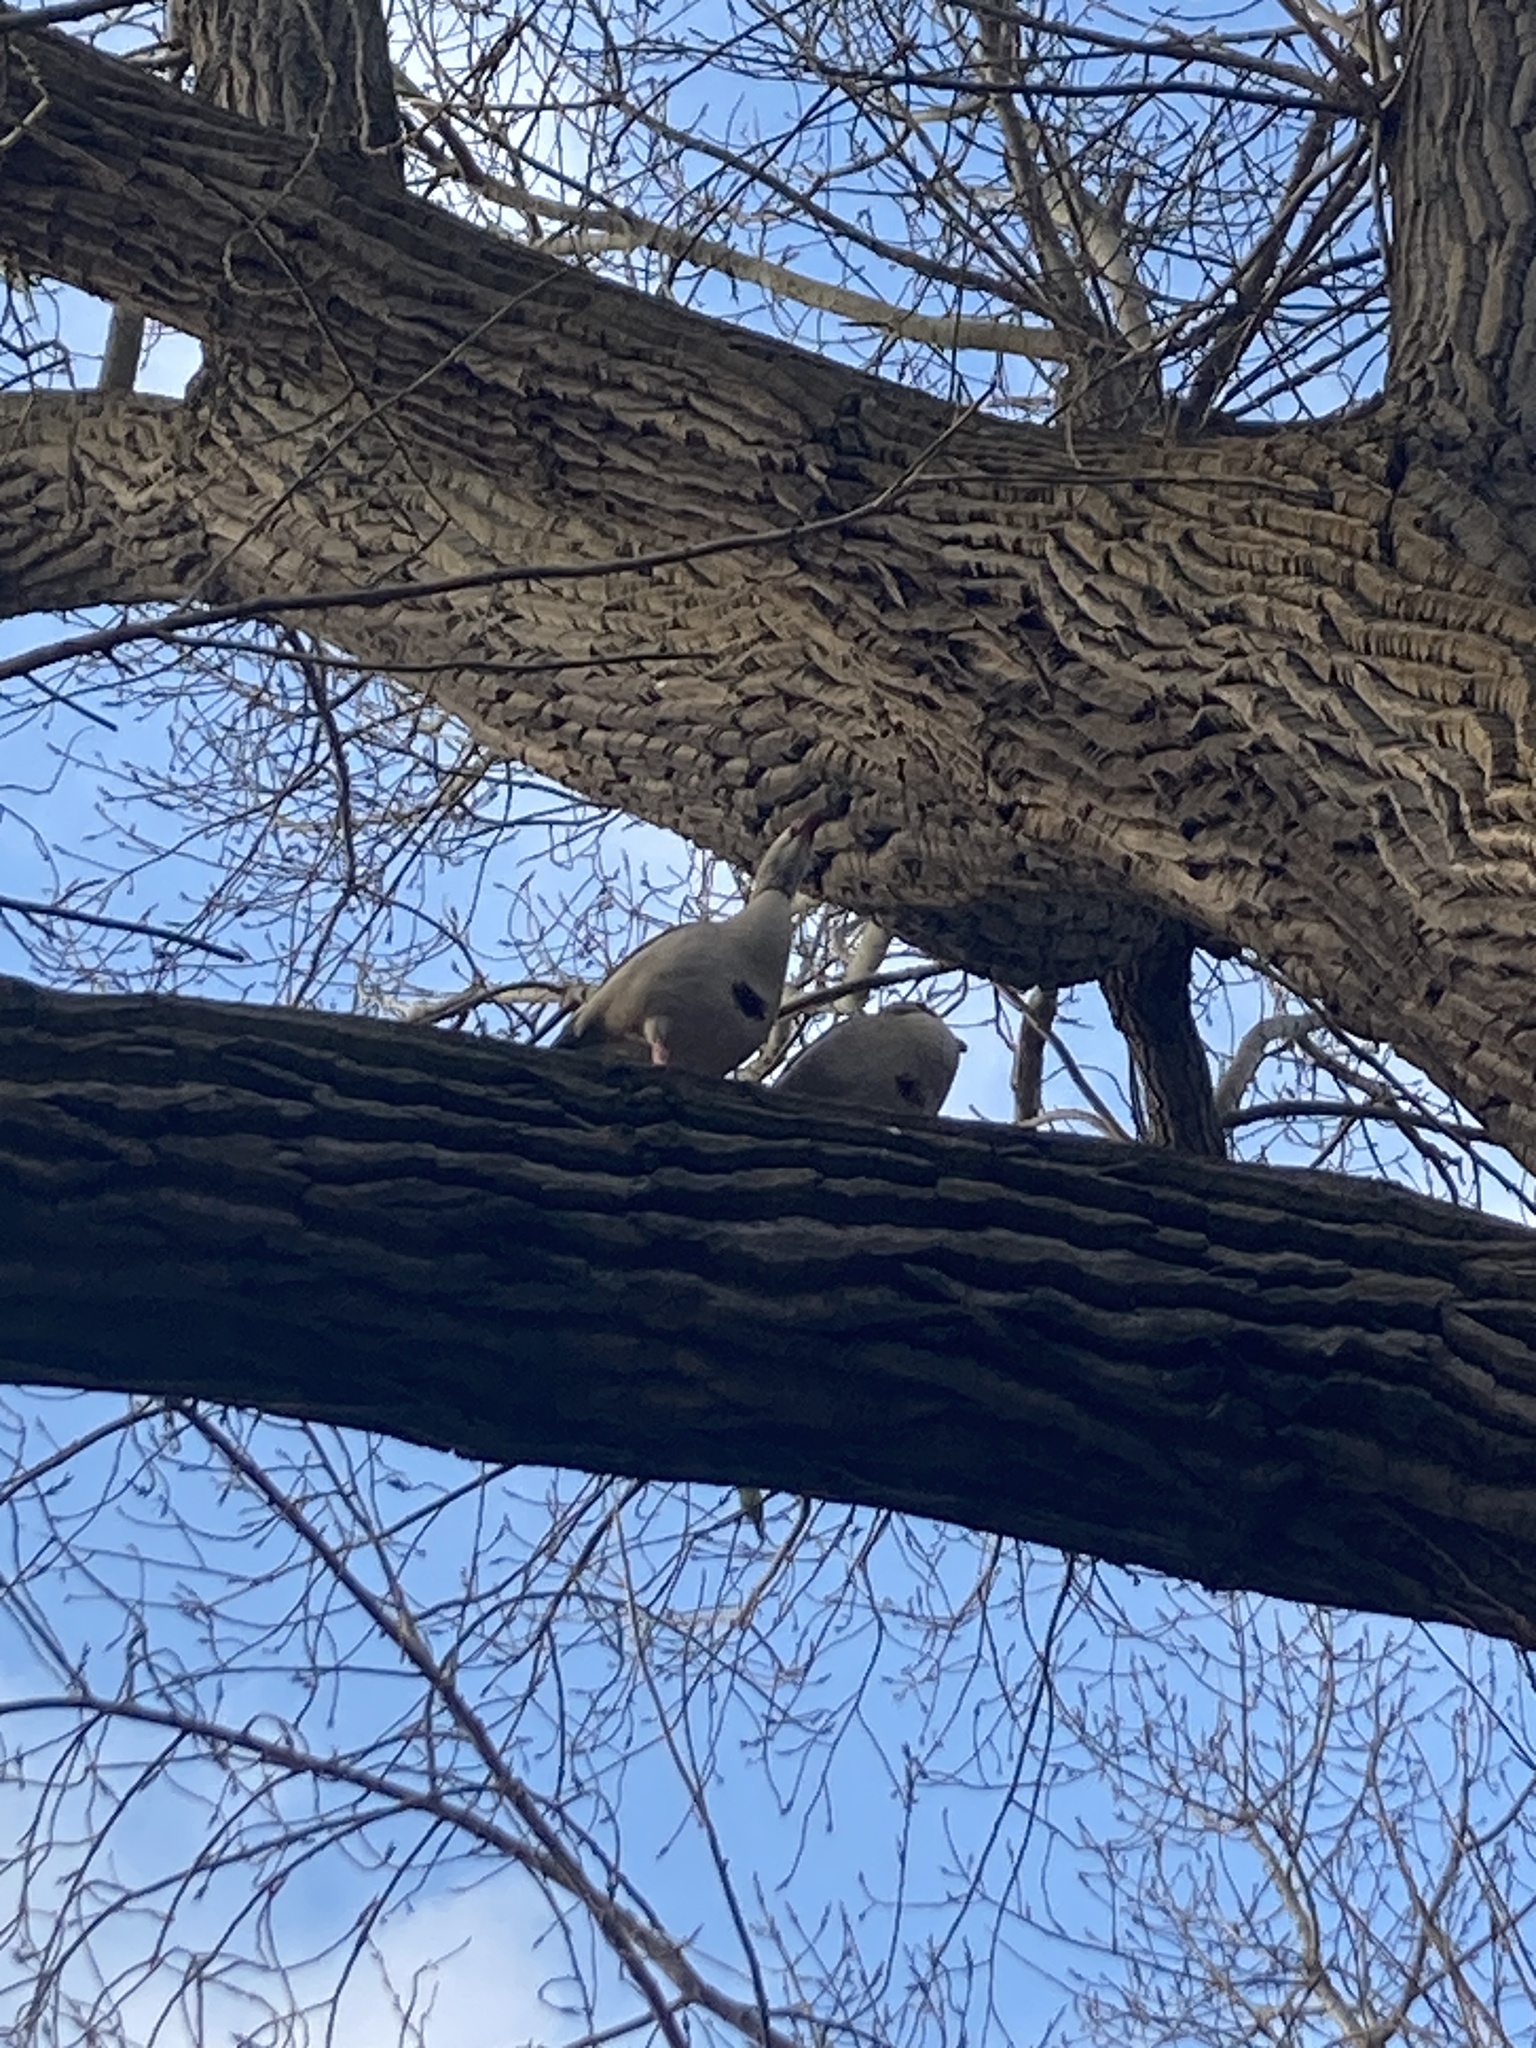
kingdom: Animalia
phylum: Chordata
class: Aves
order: Anseriformes
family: Anatidae
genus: Alopochen
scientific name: Alopochen aegyptiaca
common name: Egyptian goose
